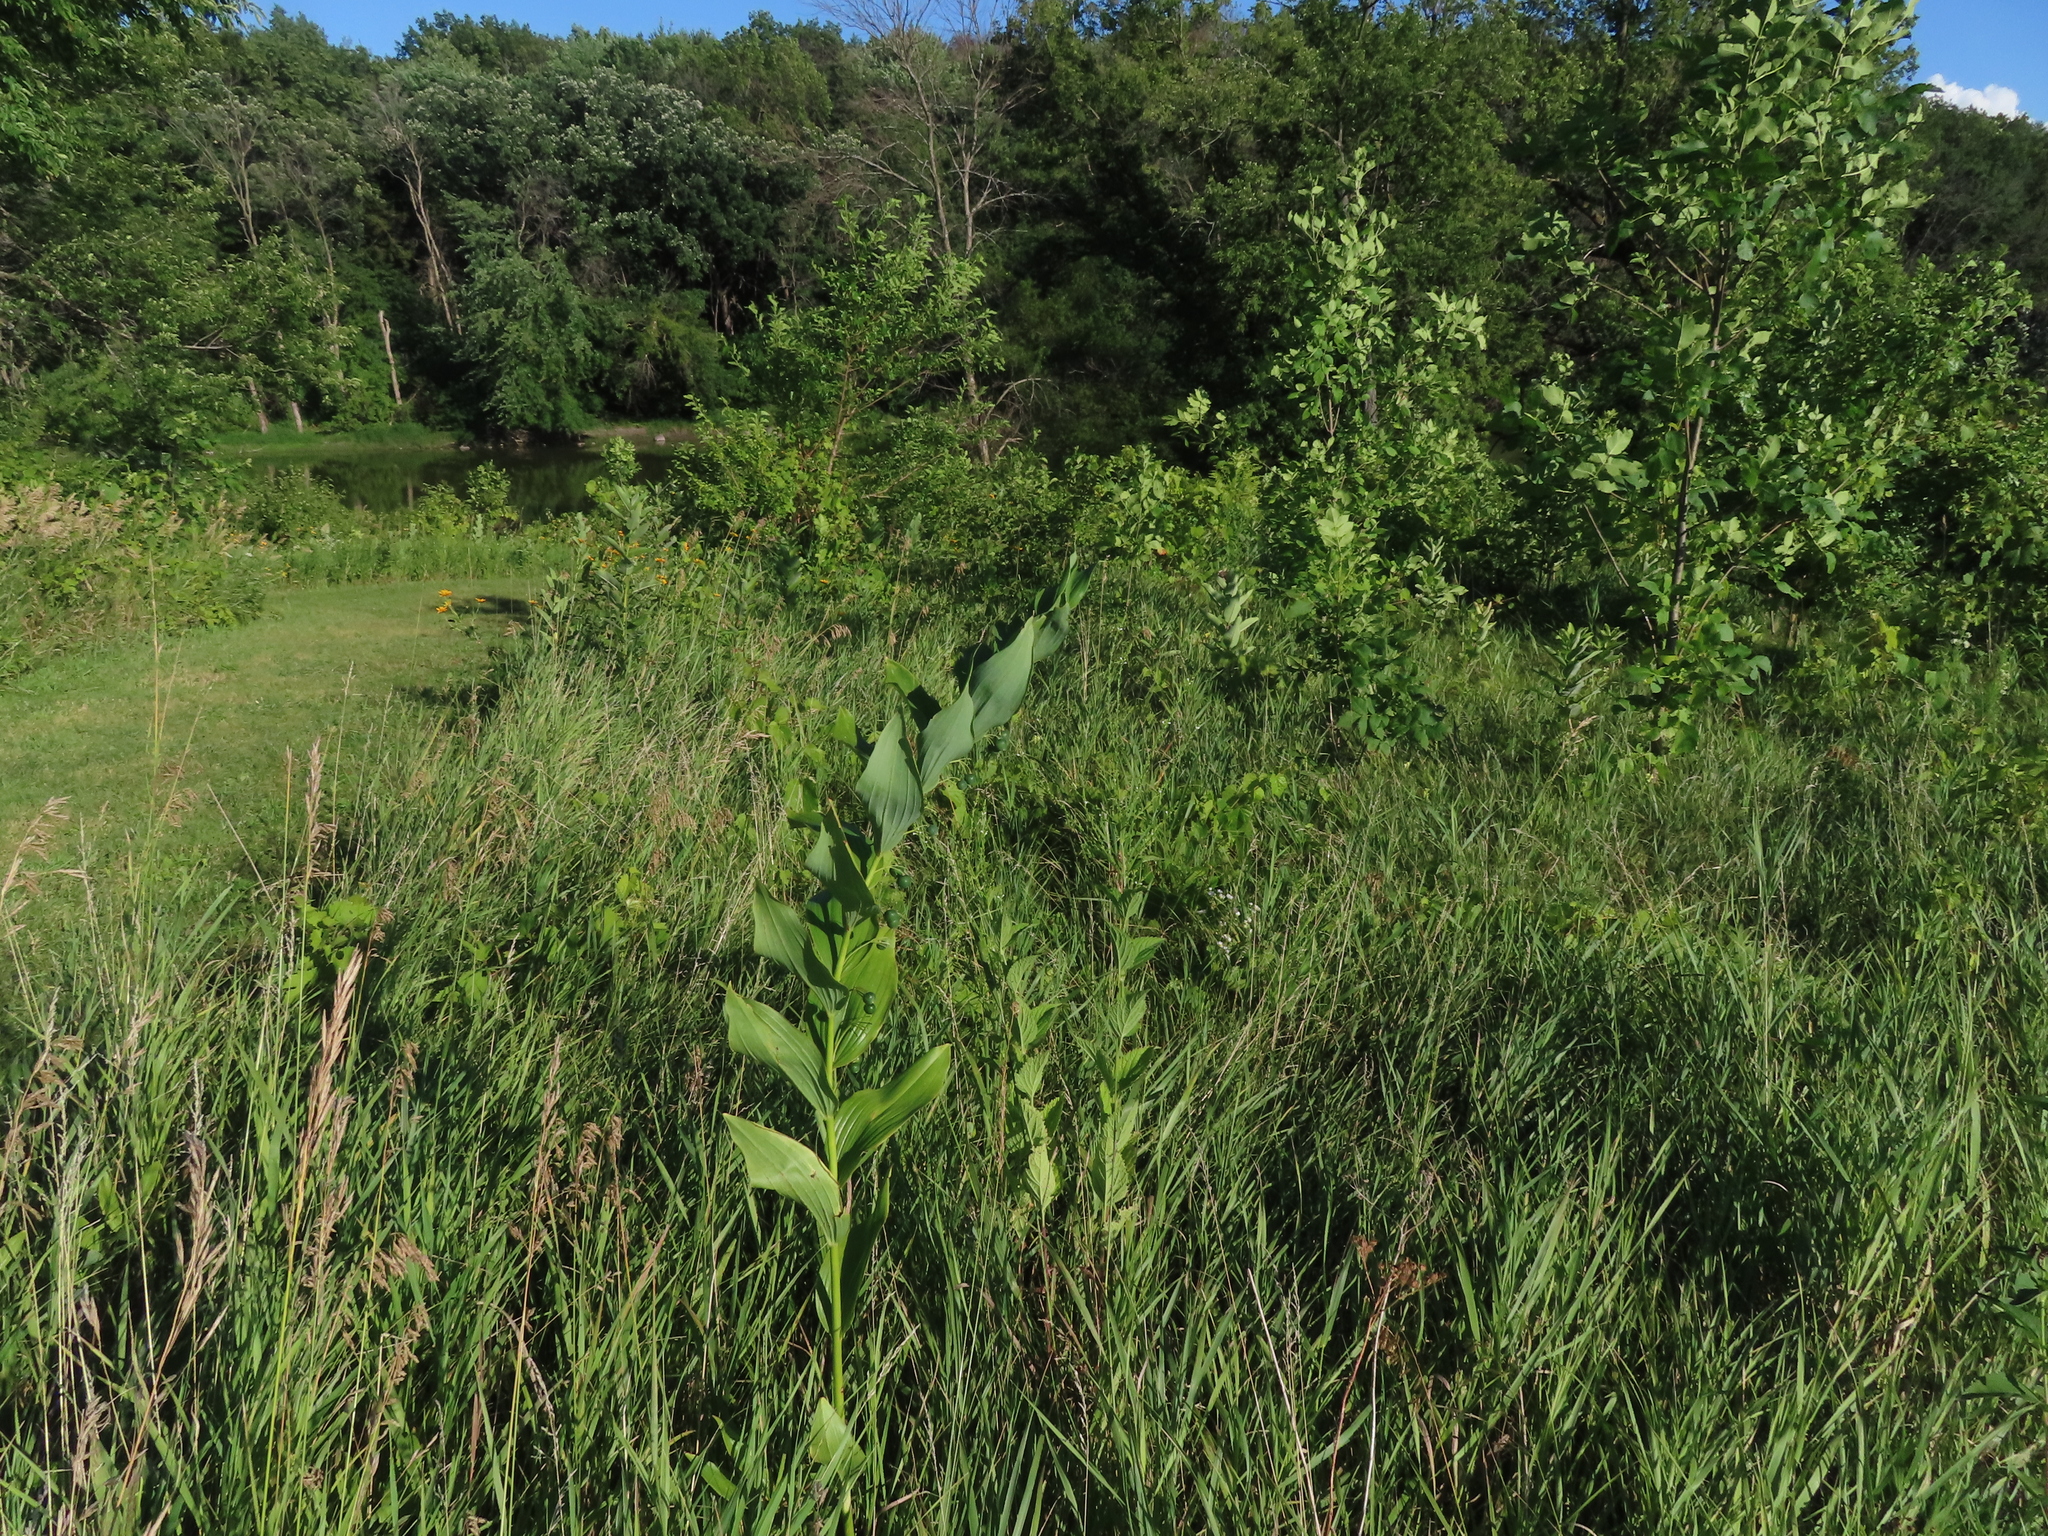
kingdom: Plantae
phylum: Tracheophyta
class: Liliopsida
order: Asparagales
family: Asparagaceae
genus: Polygonatum
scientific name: Polygonatum biflorum
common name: American solomon's-seal
